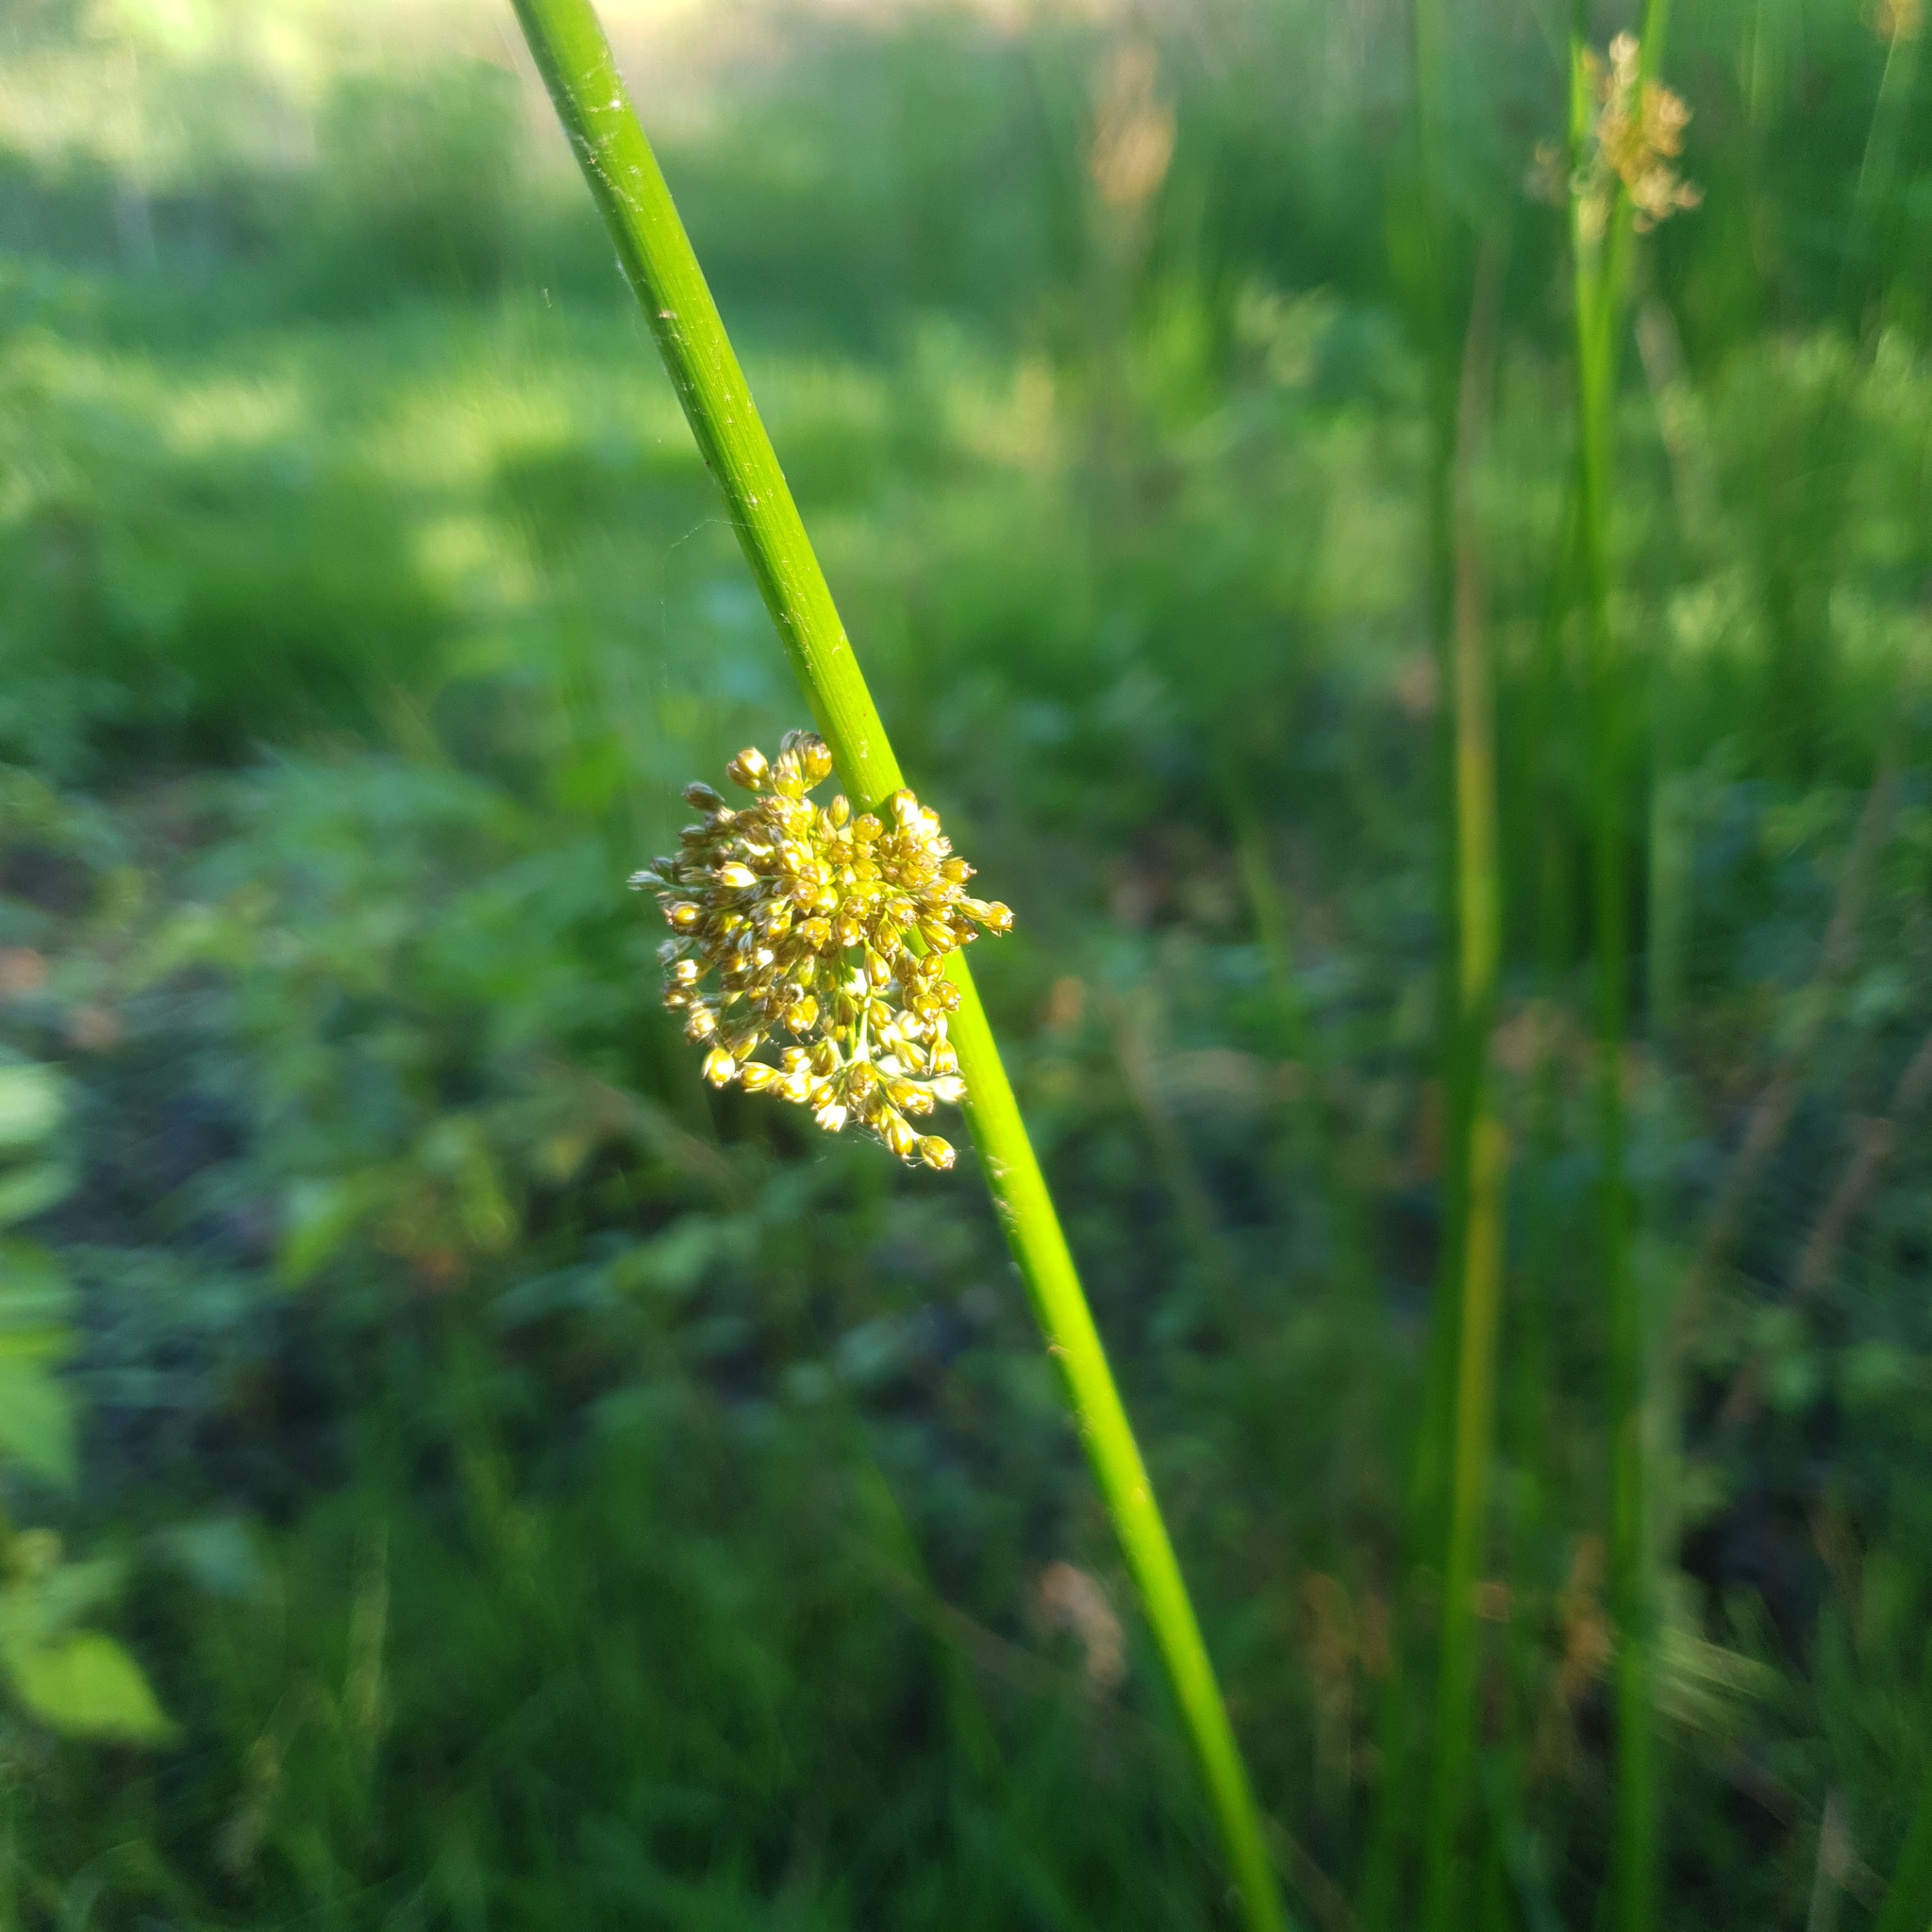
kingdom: Plantae
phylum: Tracheophyta
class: Liliopsida
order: Poales
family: Juncaceae
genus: Juncus
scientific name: Juncus effusus
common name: Soft rush
